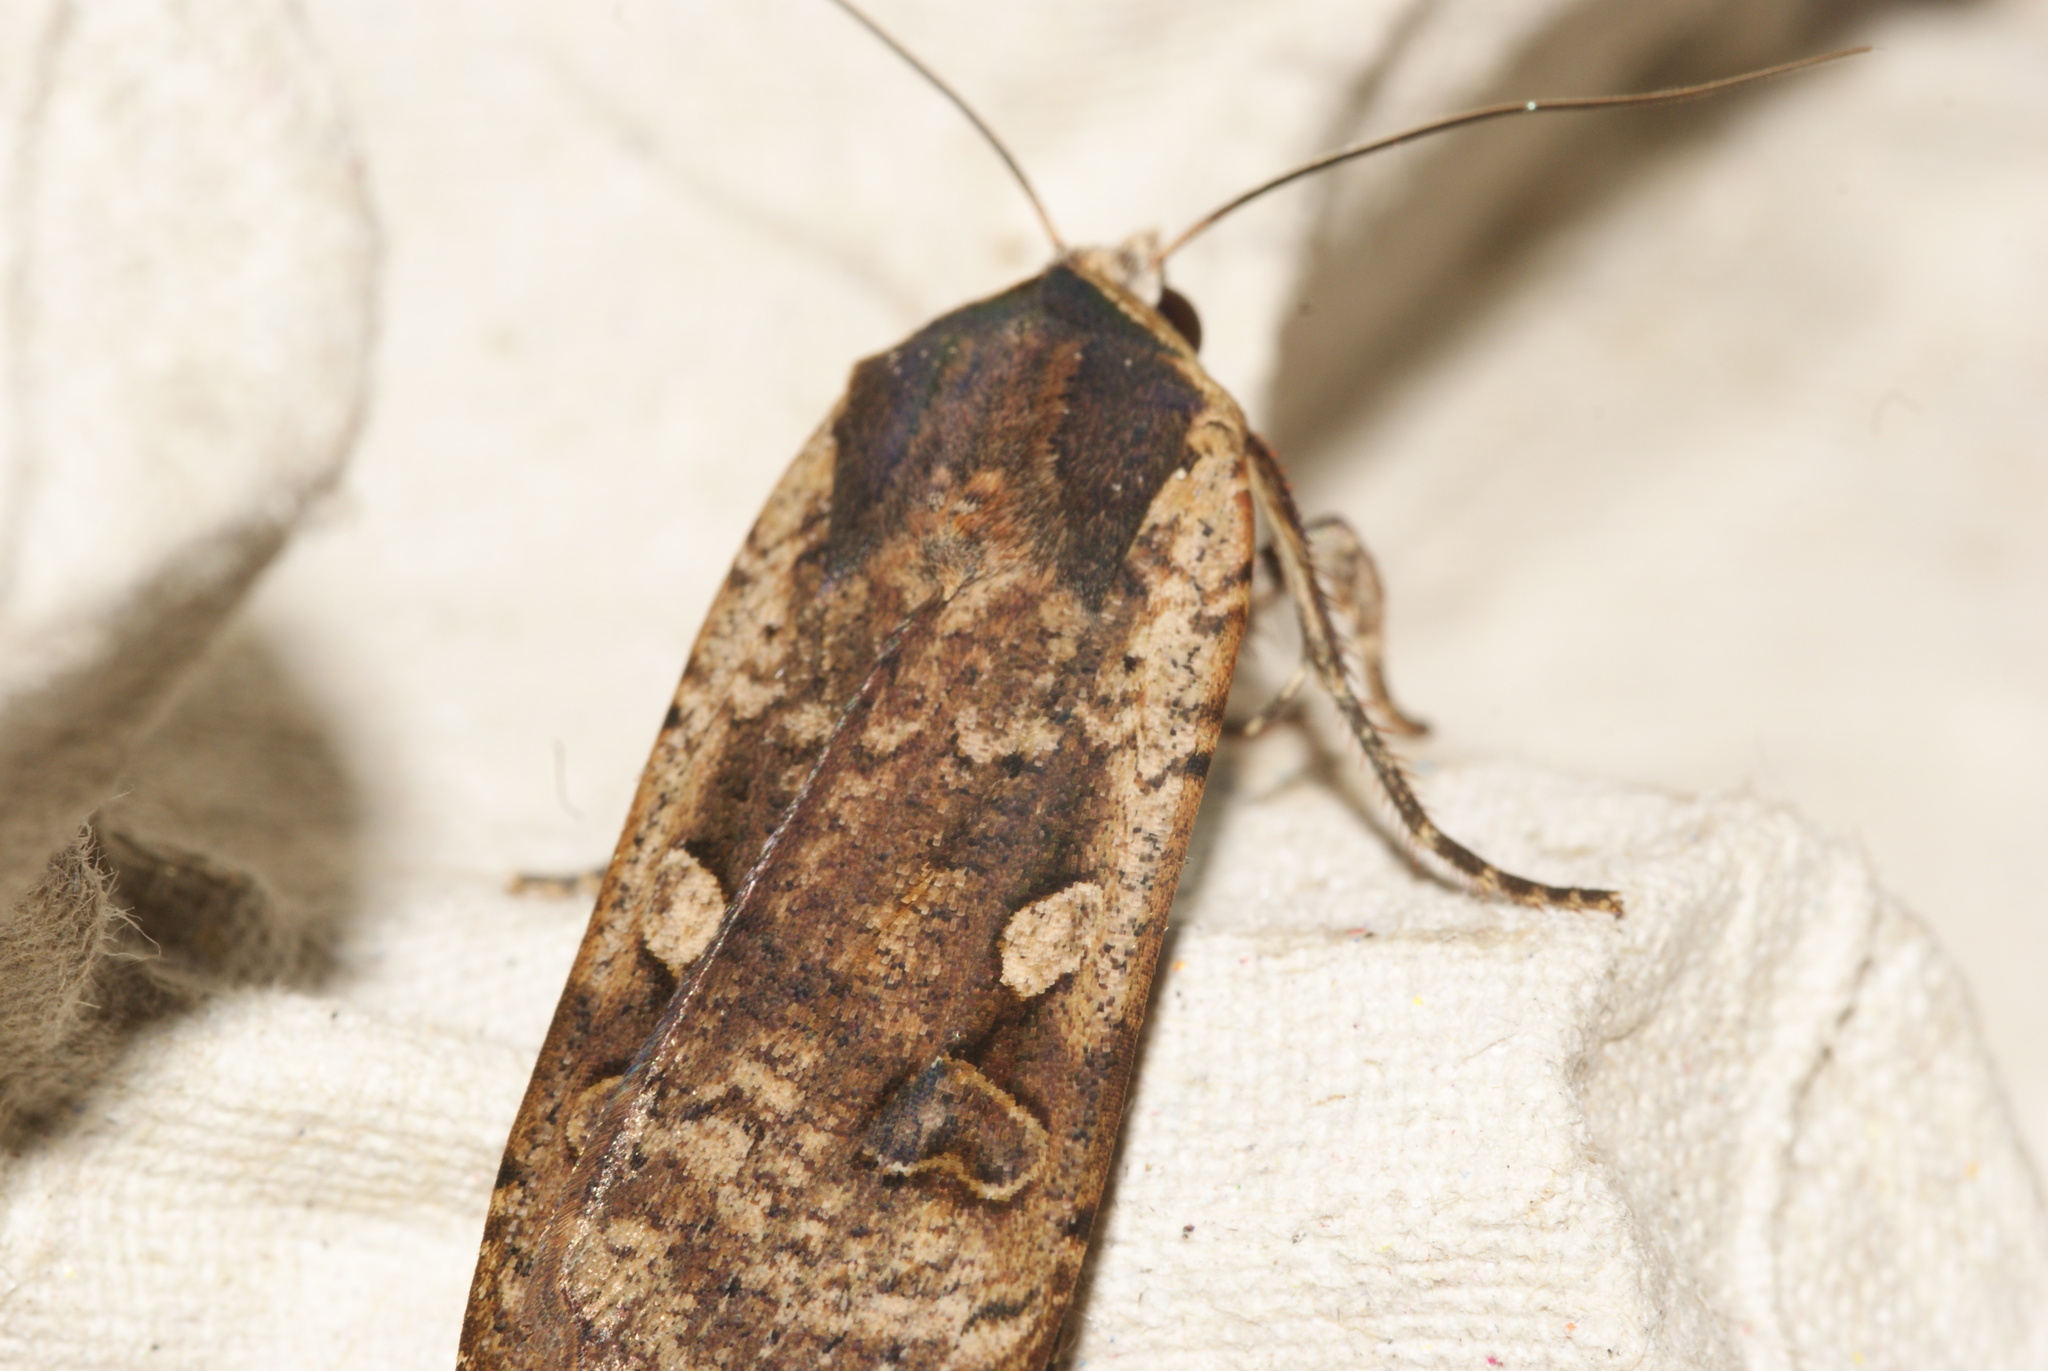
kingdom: Animalia
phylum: Arthropoda
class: Insecta
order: Lepidoptera
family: Noctuidae
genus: Noctua
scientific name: Noctua pronuba
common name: Large yellow underwing
